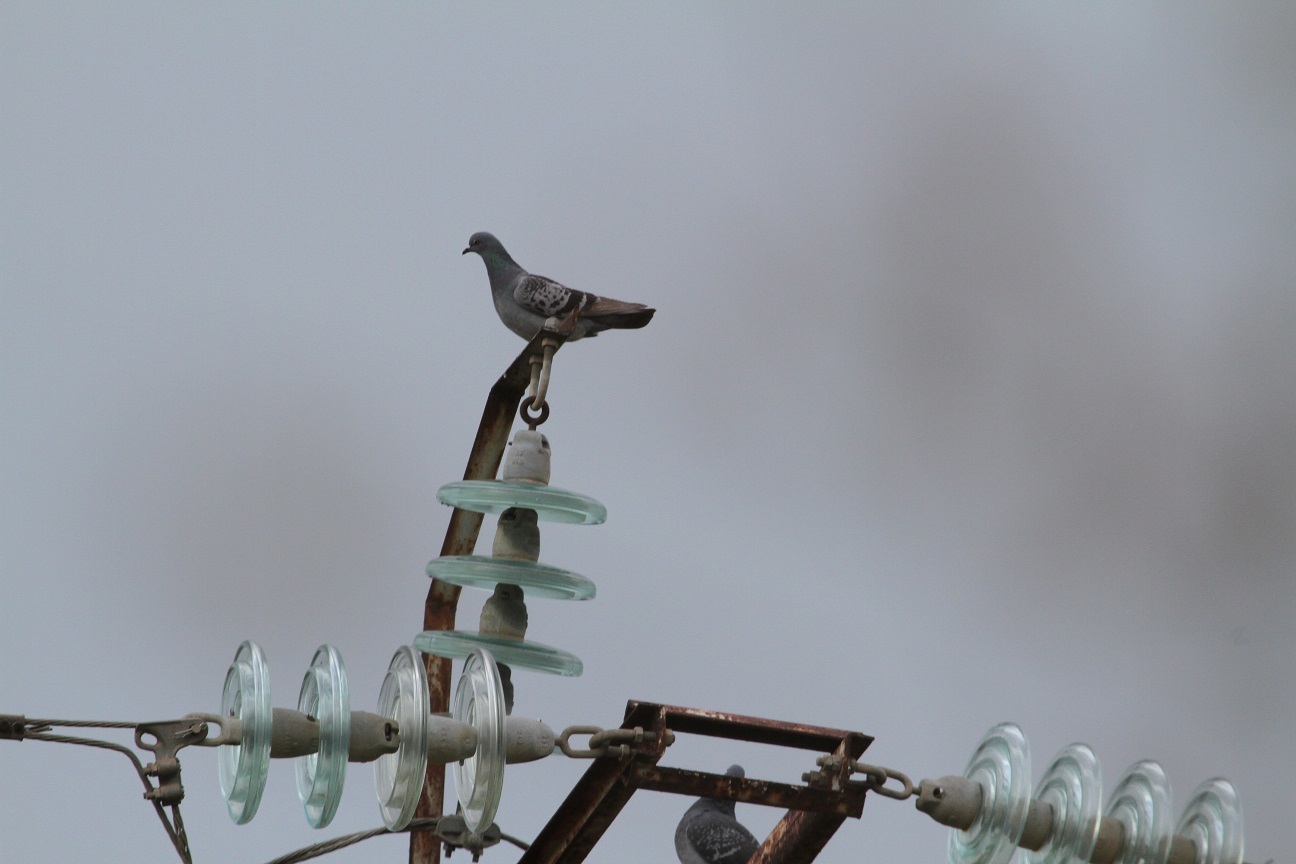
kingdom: Animalia
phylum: Chordata
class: Aves
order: Columbiformes
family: Columbidae
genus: Columba
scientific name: Columba livia
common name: Rock pigeon
